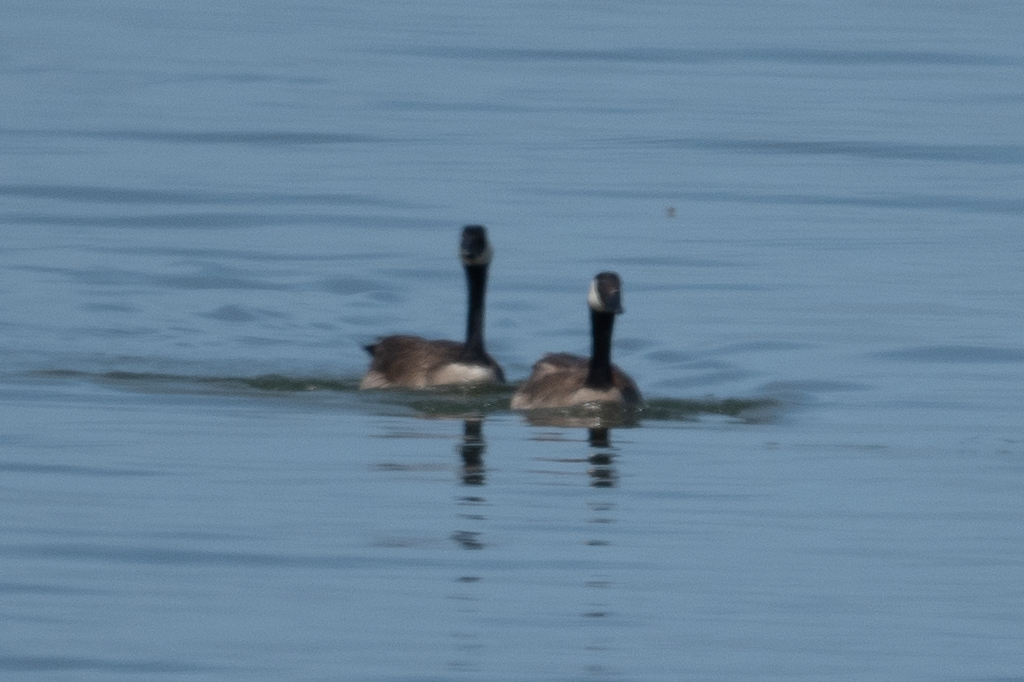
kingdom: Animalia
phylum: Chordata
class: Aves
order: Anseriformes
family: Anatidae
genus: Branta
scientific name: Branta canadensis
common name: Canada goose
